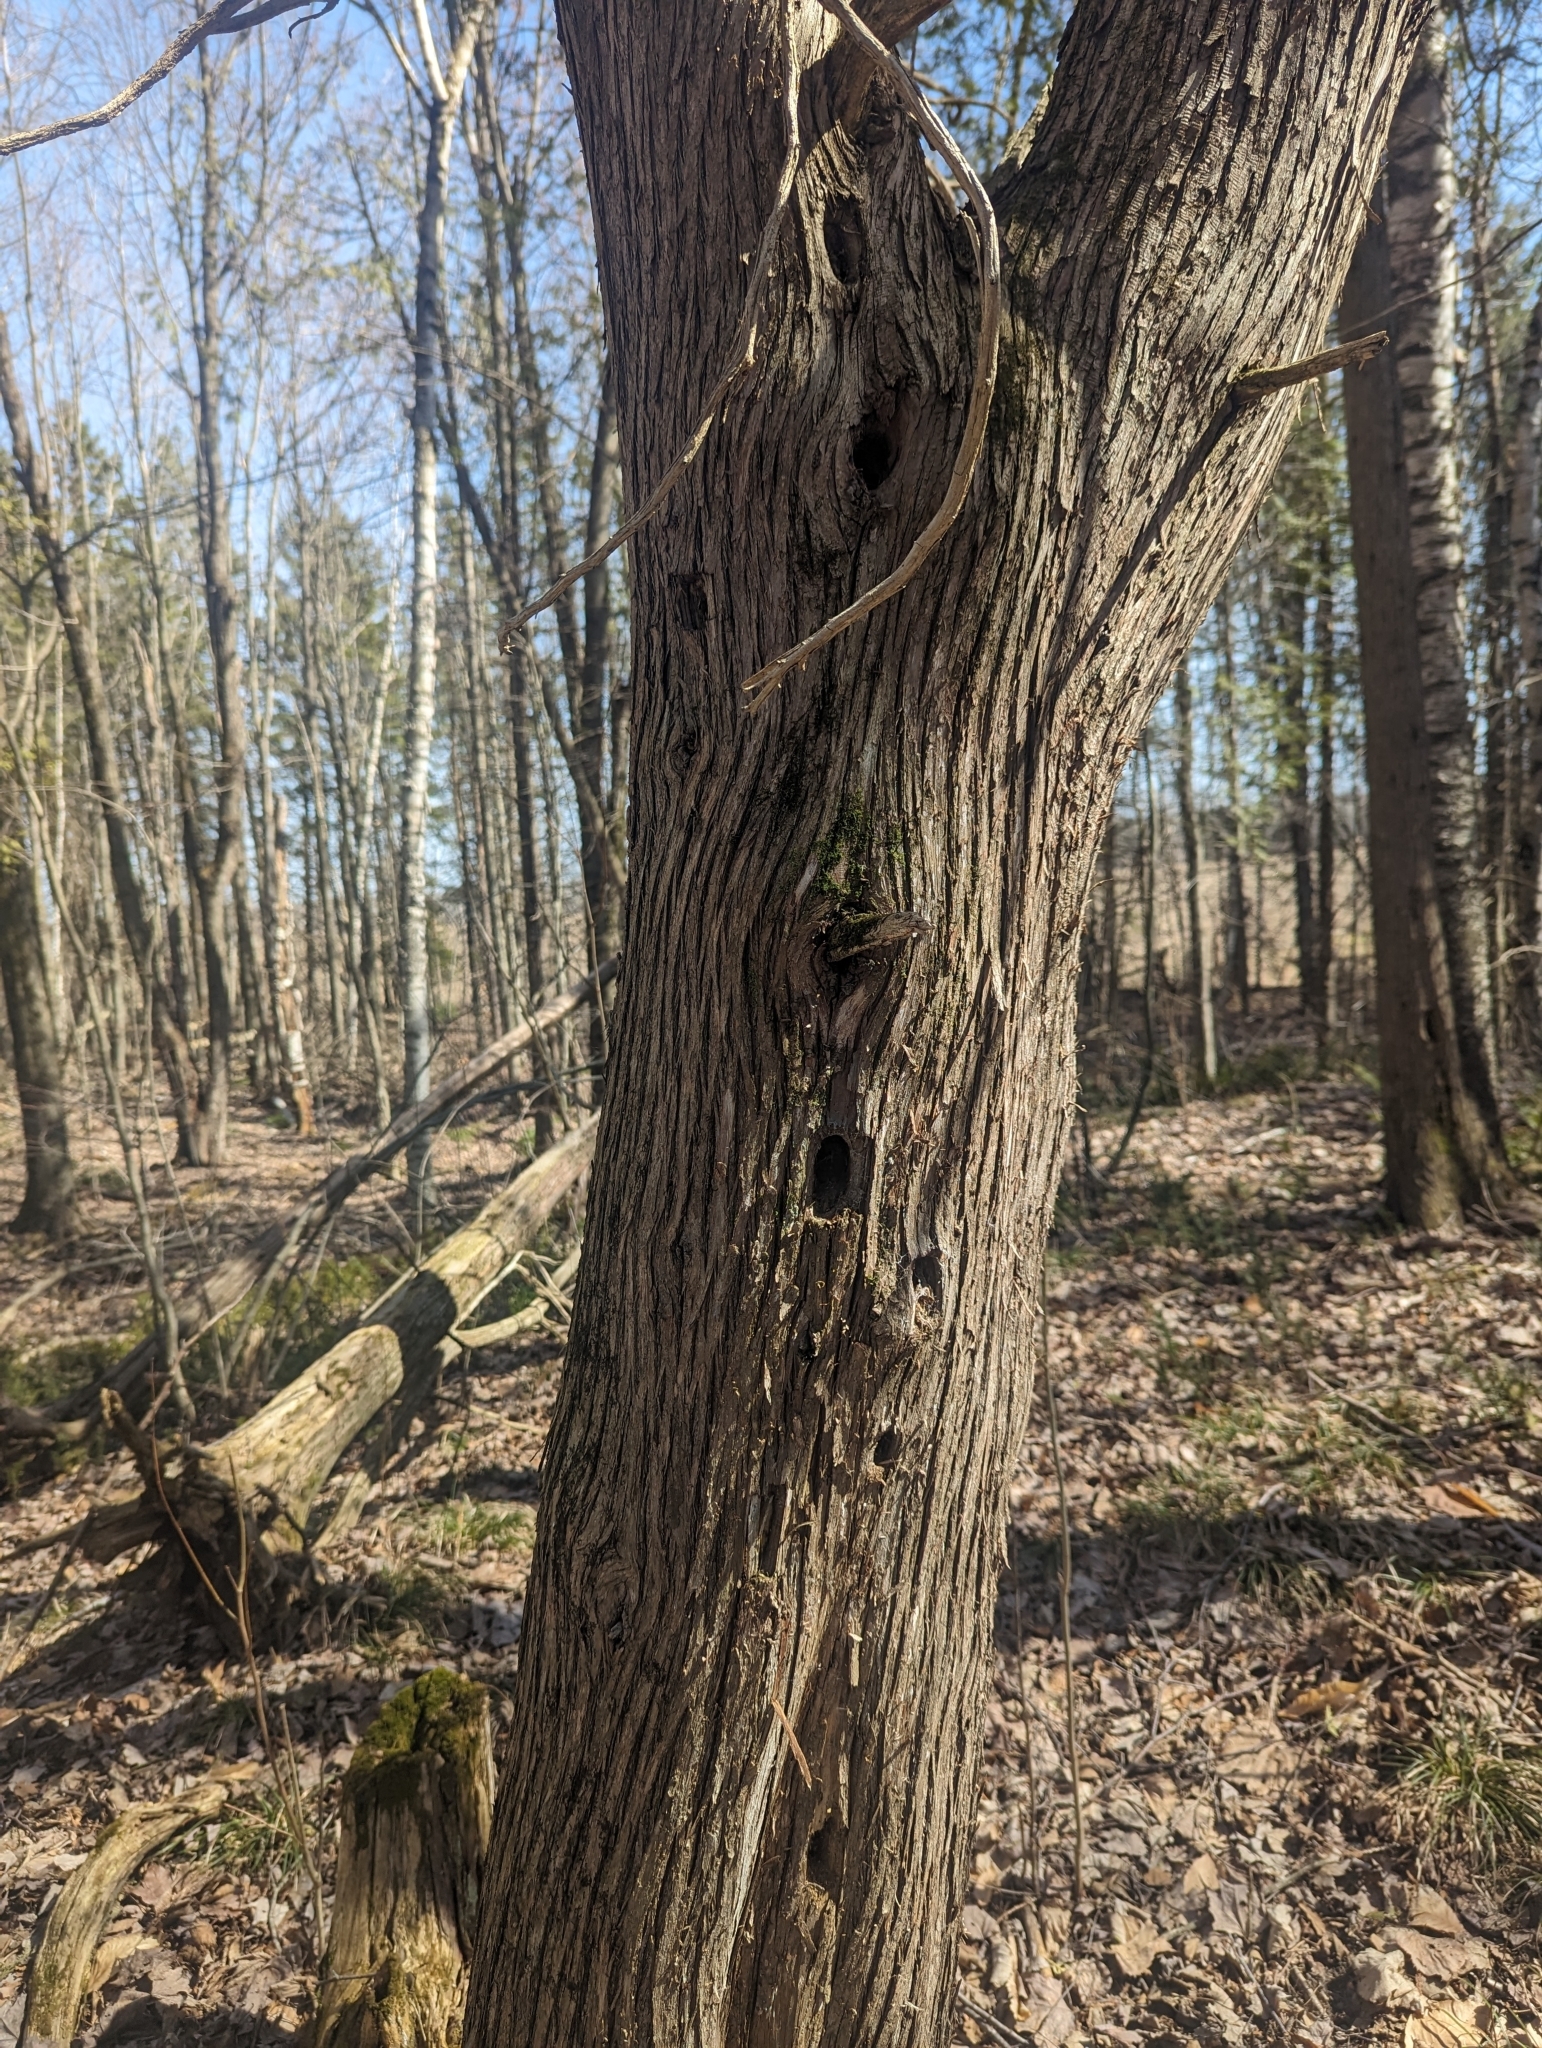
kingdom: Plantae
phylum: Tracheophyta
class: Magnoliopsida
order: Fagales
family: Betulaceae
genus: Ostrya
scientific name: Ostrya virginiana
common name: Ironwood
